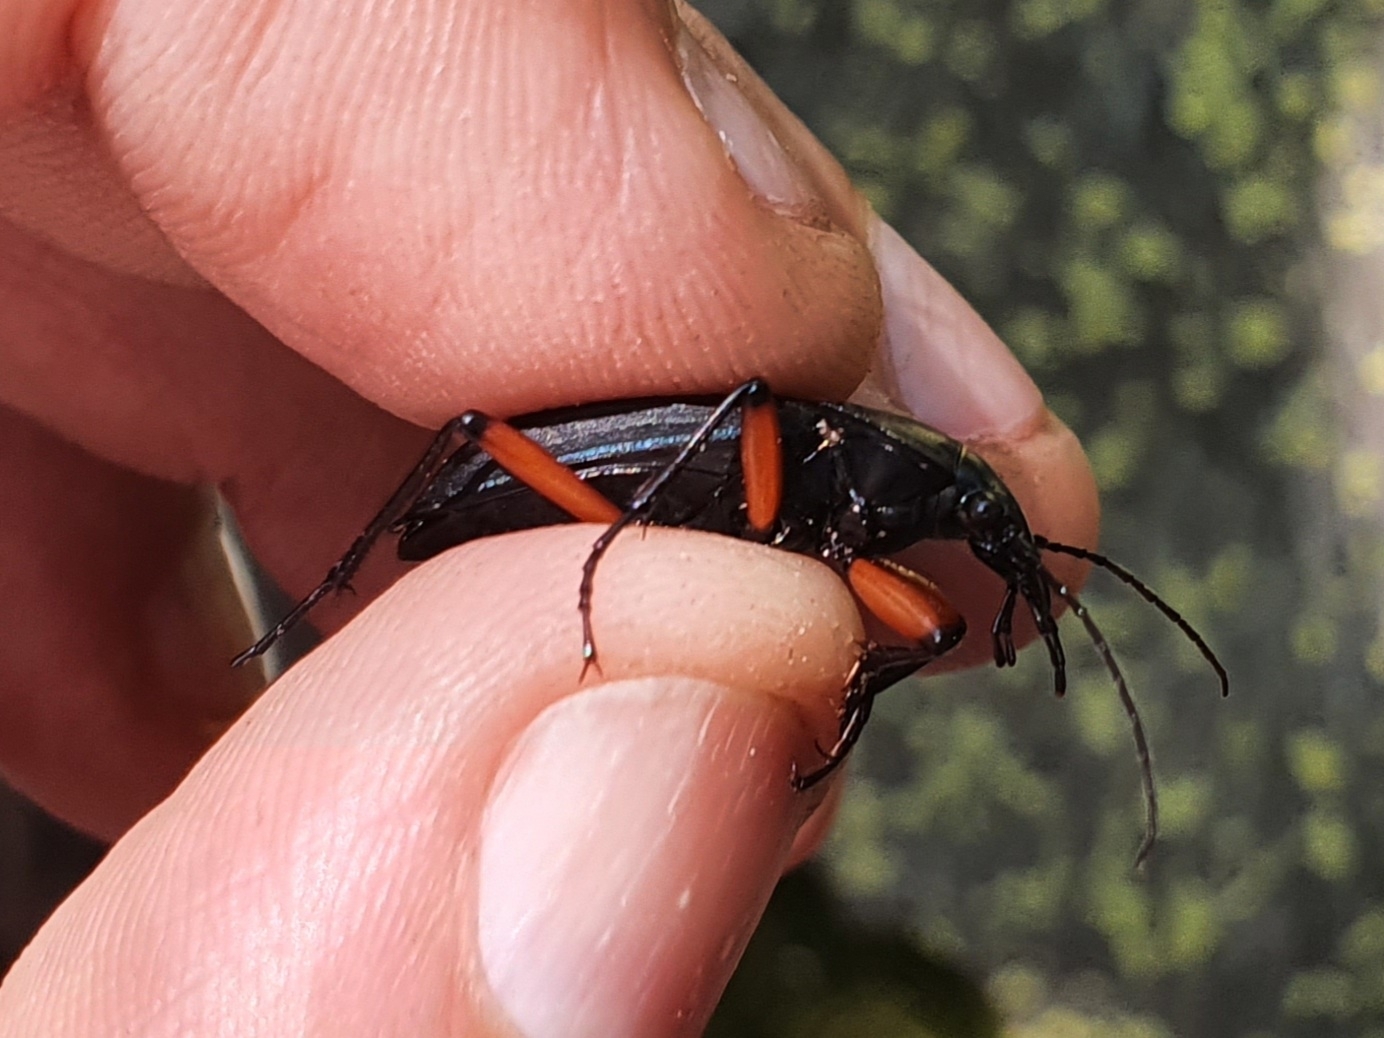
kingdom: Animalia
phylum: Arthropoda
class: Insecta
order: Coleoptera
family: Carabidae
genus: Carabus
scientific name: Carabus galicianus
